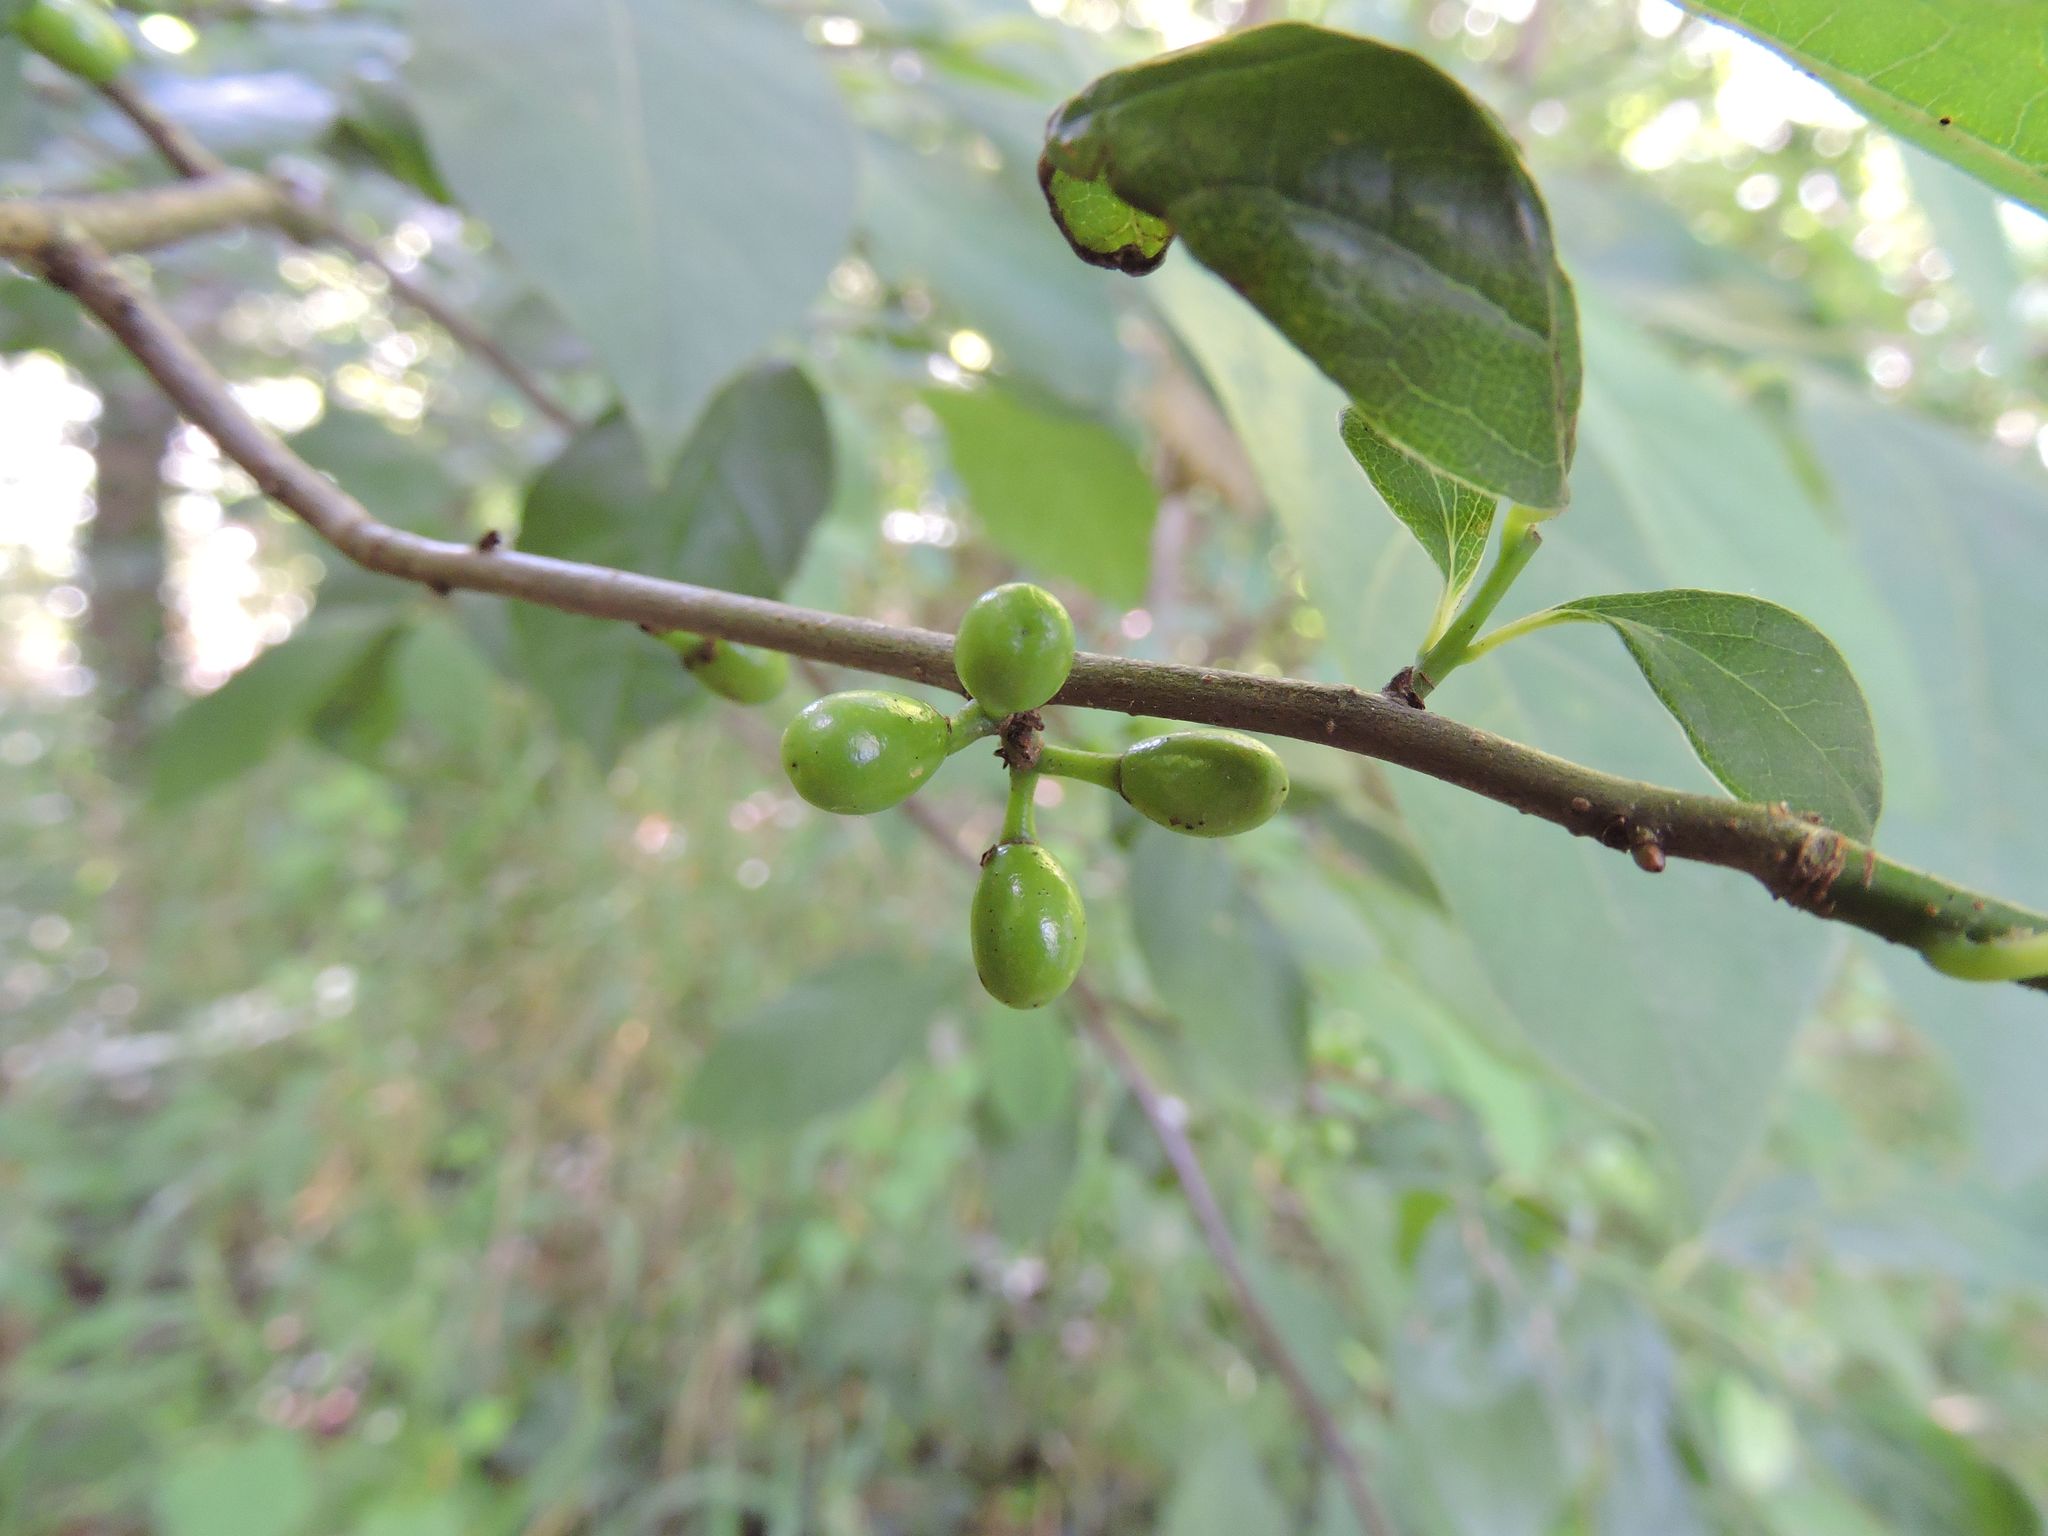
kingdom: Plantae
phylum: Tracheophyta
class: Magnoliopsida
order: Laurales
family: Lauraceae
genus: Lindera
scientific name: Lindera benzoin
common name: Spicebush
